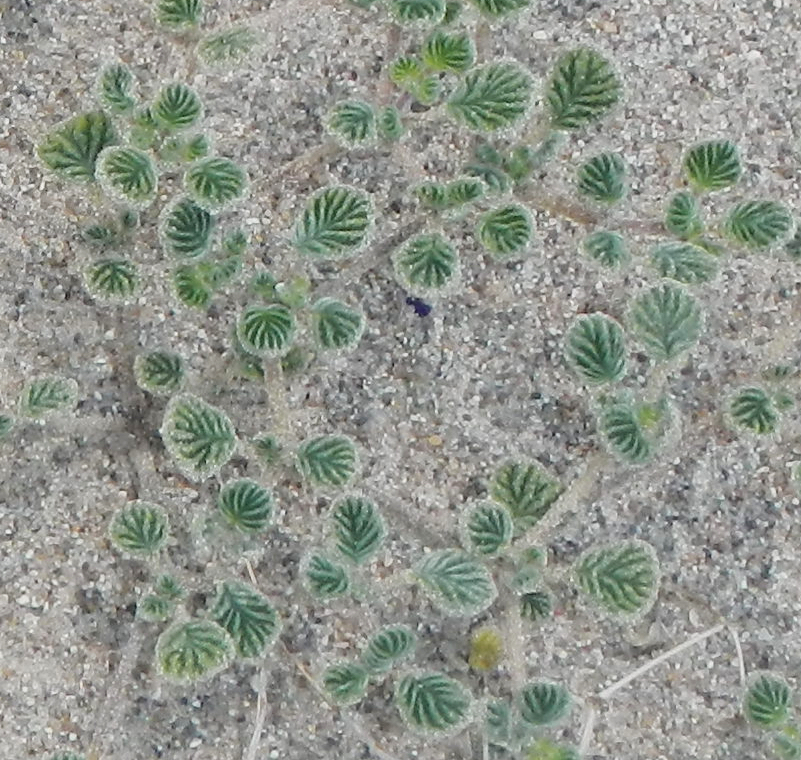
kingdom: Plantae
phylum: Tracheophyta
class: Magnoliopsida
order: Boraginales
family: Ehretiaceae
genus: Tiquilia
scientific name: Tiquilia plicata
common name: Fan-leaf tiquilia
